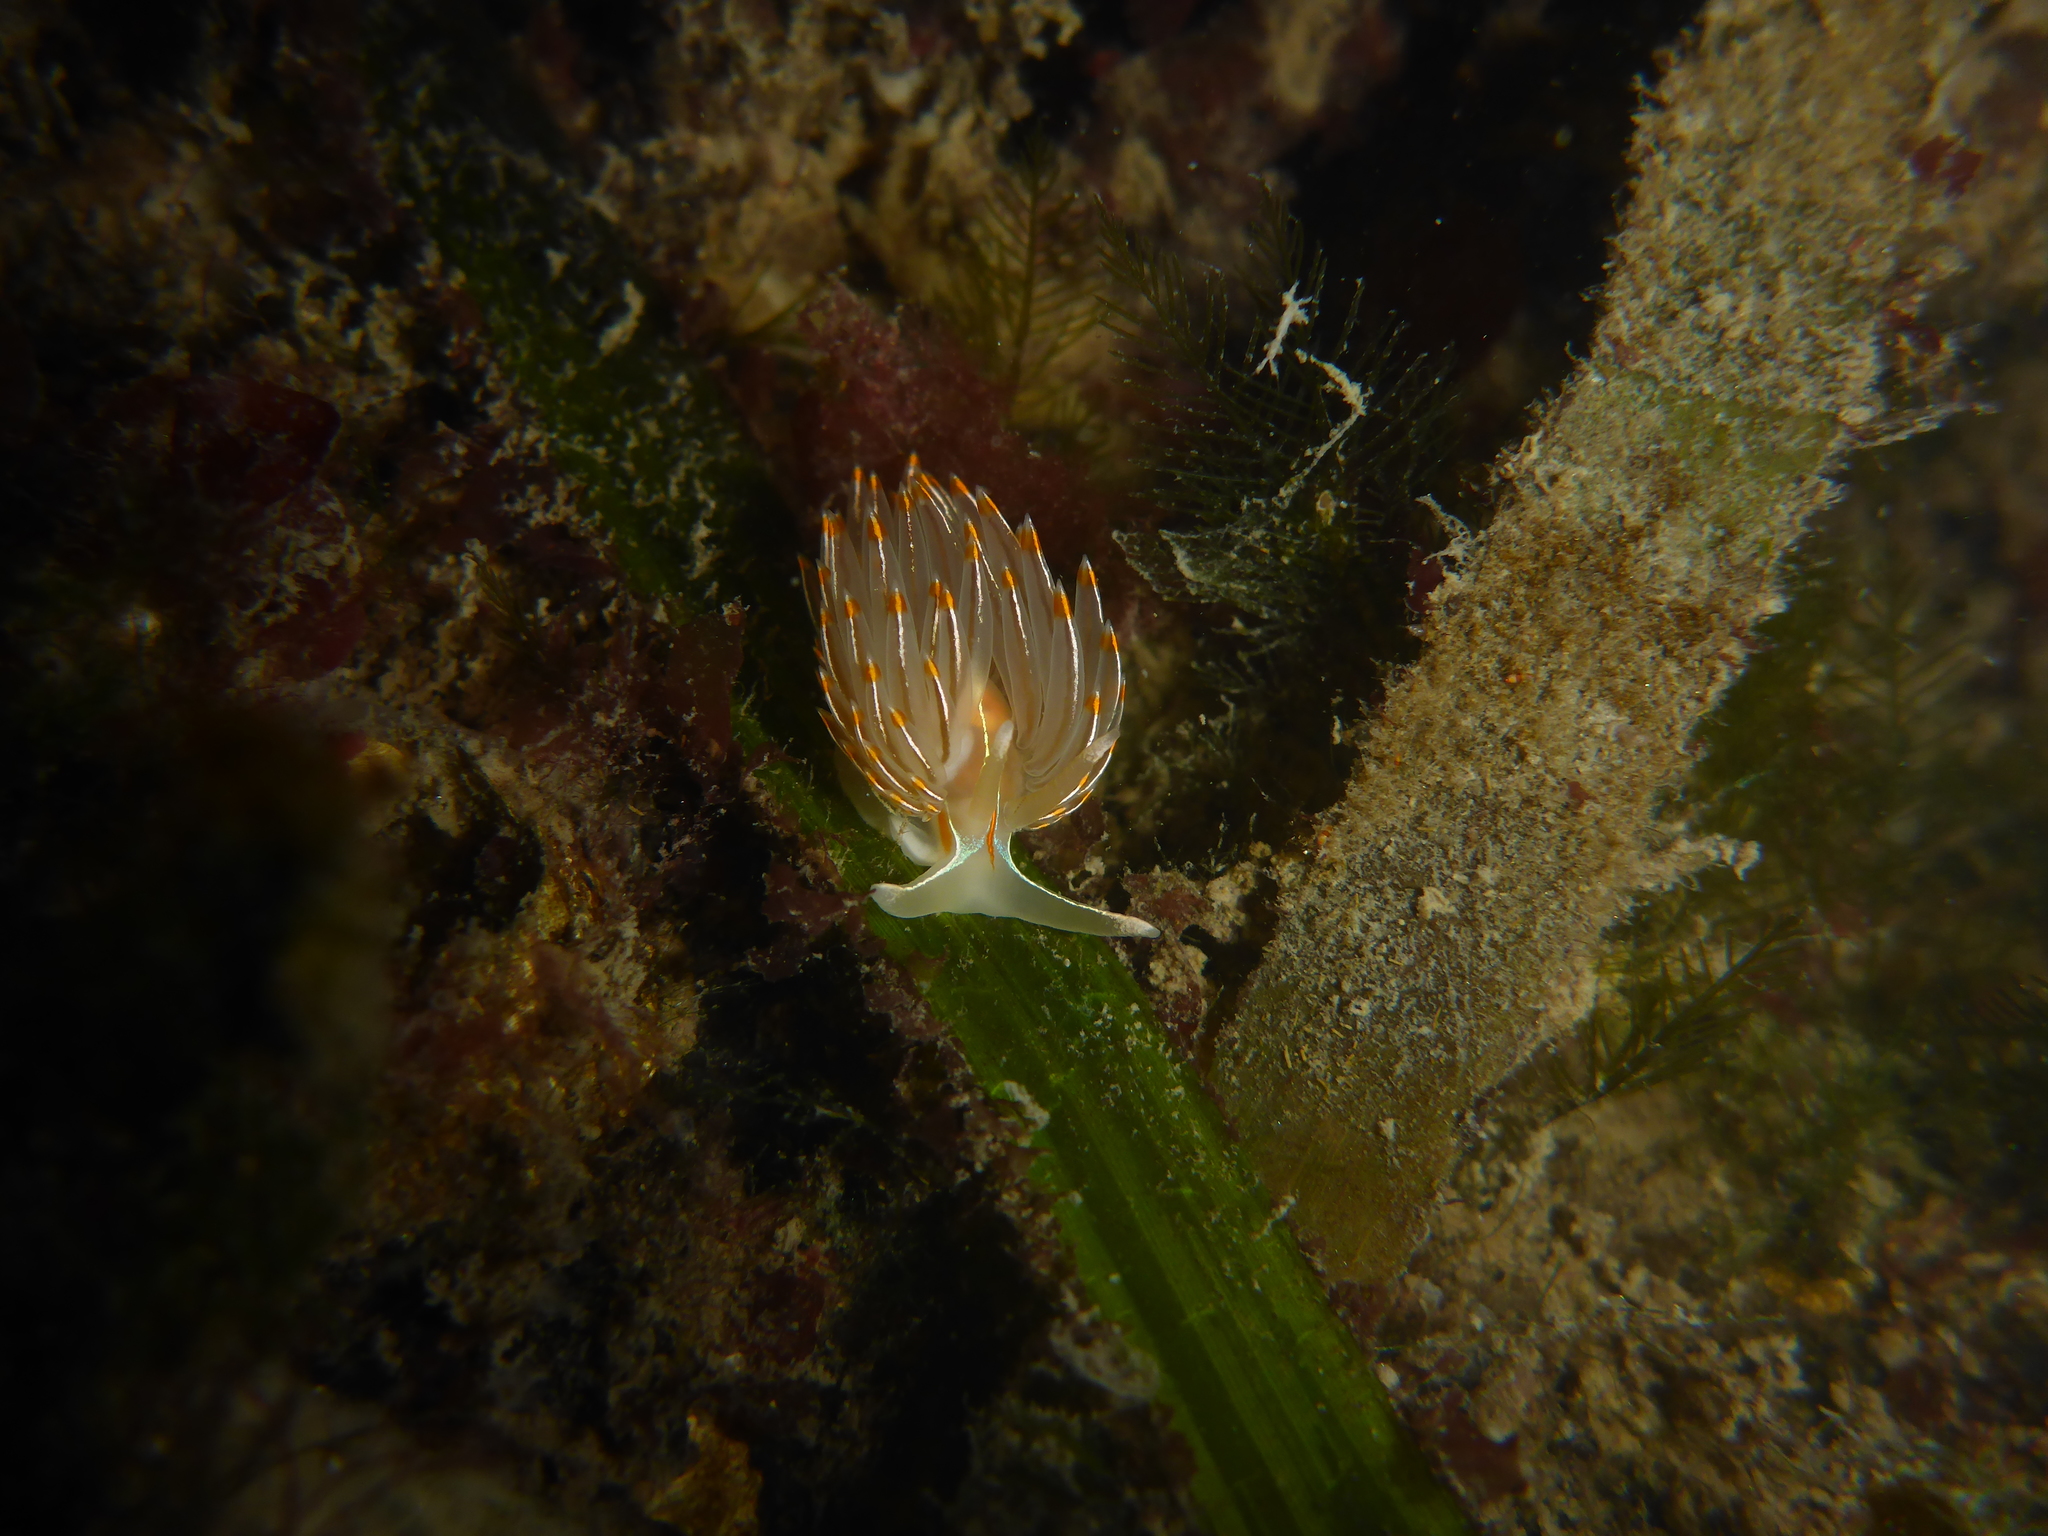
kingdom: Animalia
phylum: Mollusca
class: Gastropoda
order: Nudibranchia
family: Myrrhinidae
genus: Hermissenda
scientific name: Hermissenda crassicornis
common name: Hermissenda
